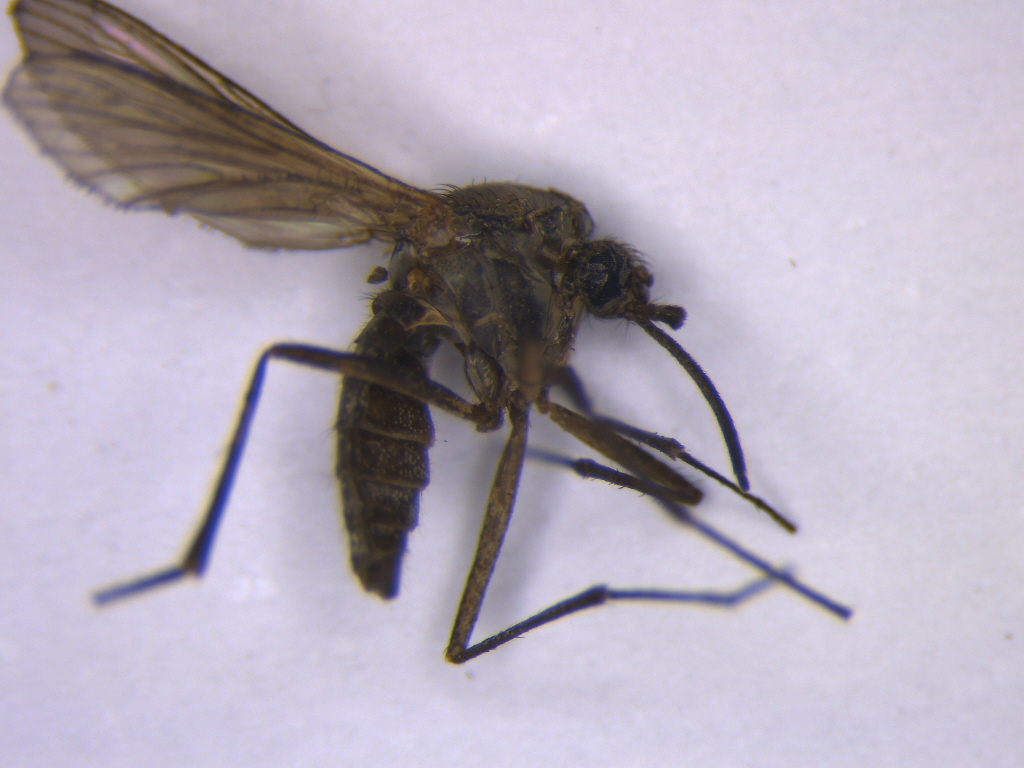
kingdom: Animalia
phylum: Arthropoda
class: Insecta
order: Diptera
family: Culicidae
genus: Opifex
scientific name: Opifex fuscus
